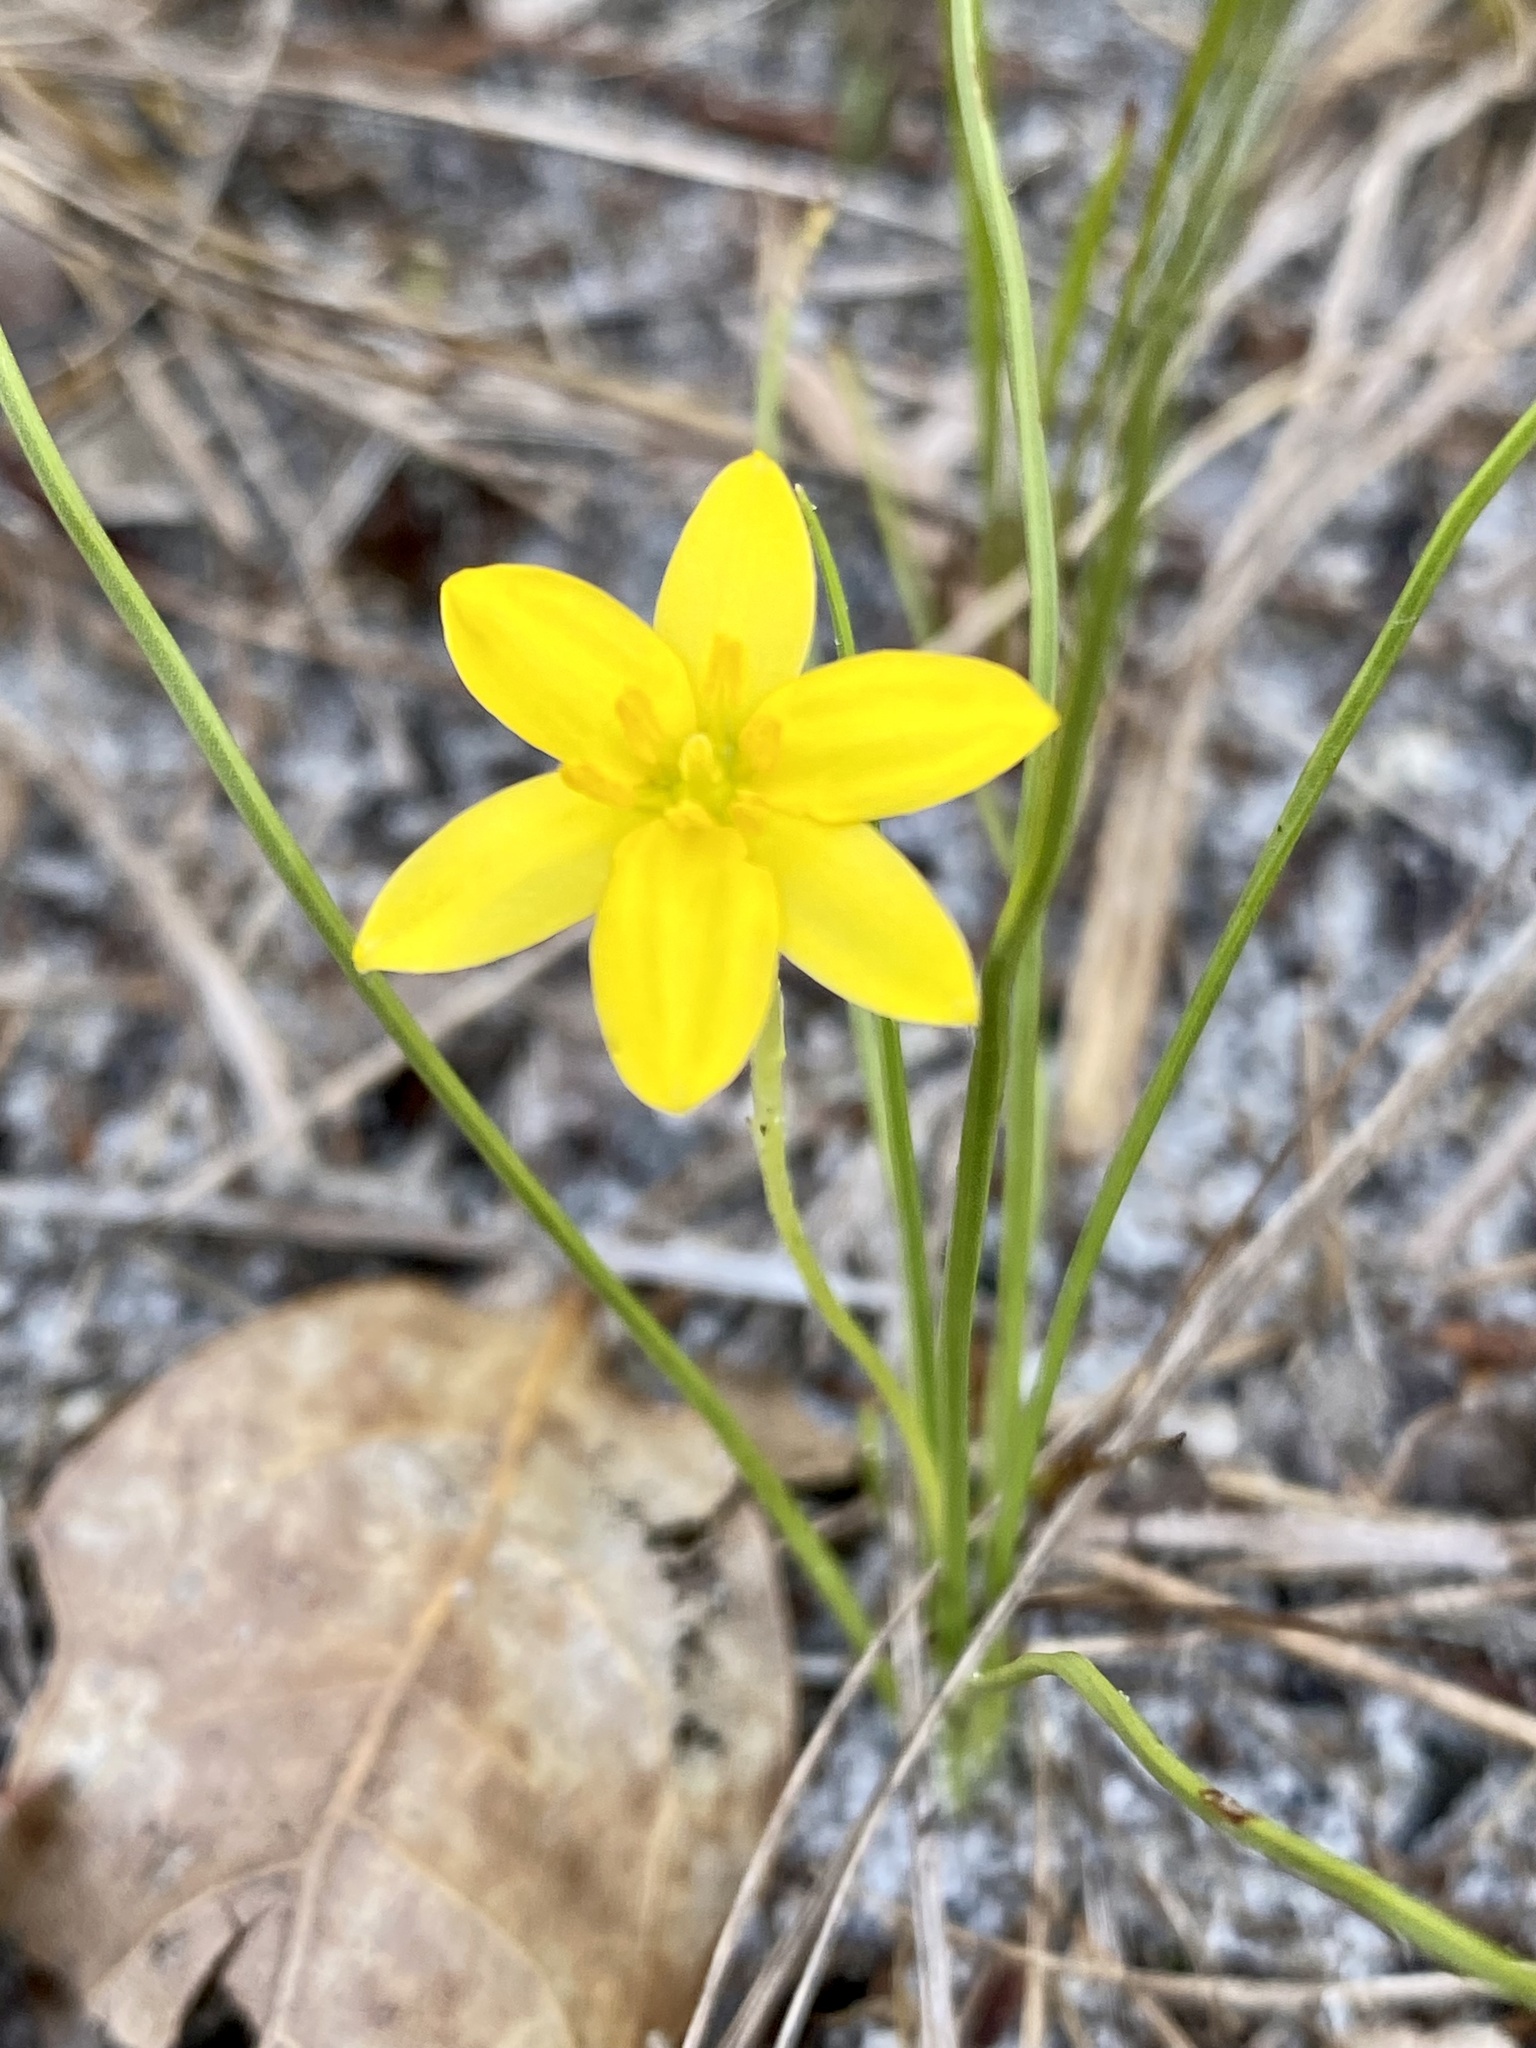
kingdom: Plantae
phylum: Tracheophyta
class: Liliopsida
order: Asparagales
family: Hypoxidaceae
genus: Hypoxis
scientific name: Hypoxis juncea
